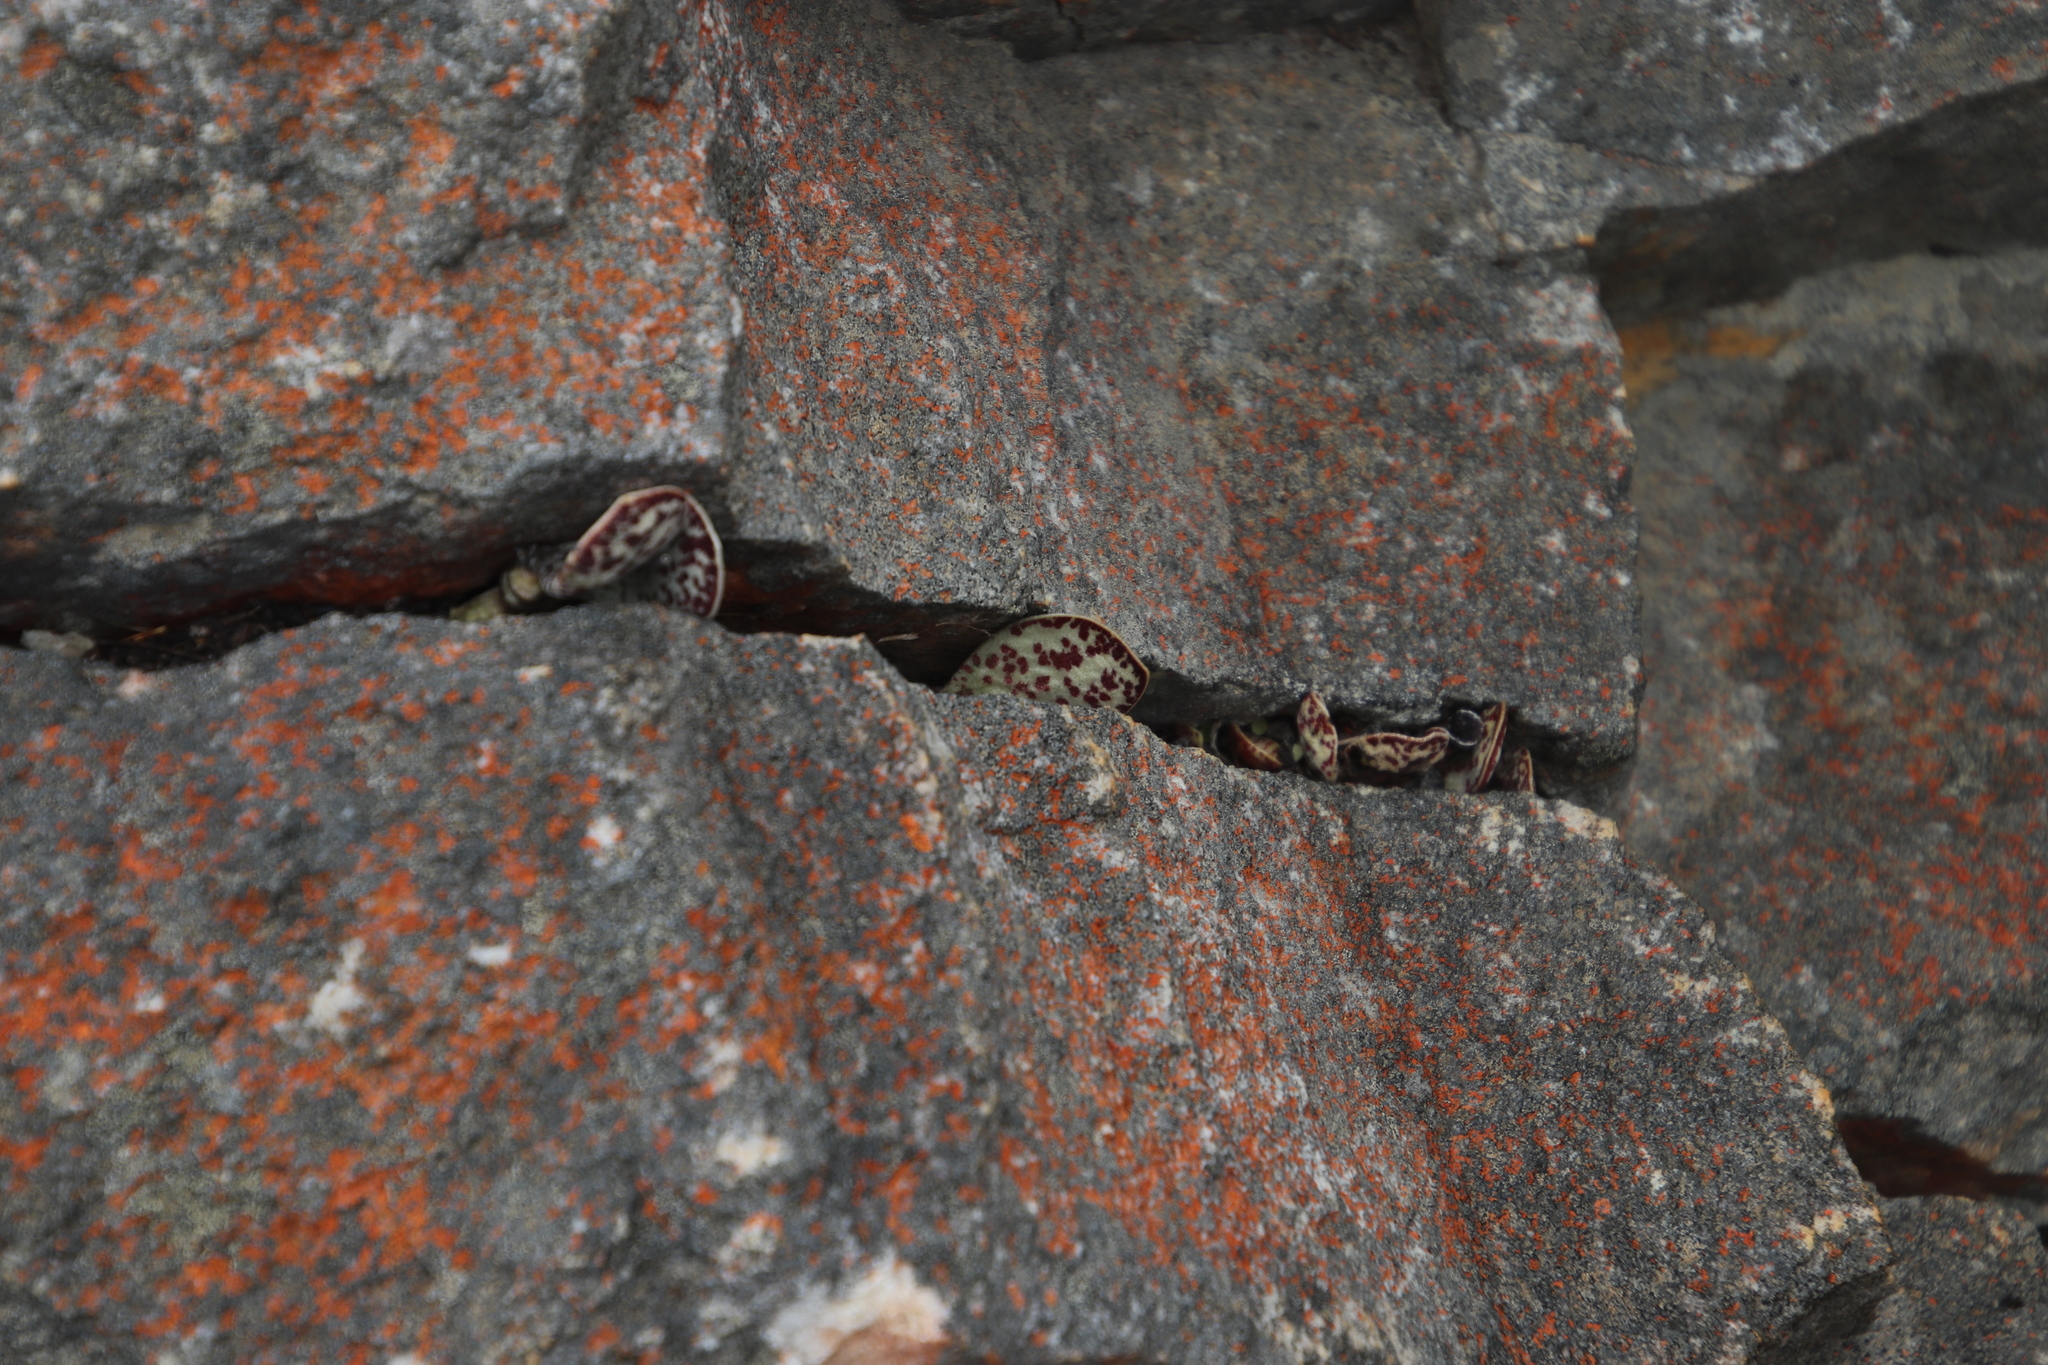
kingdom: Plantae
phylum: Tracheophyta
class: Magnoliopsida
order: Saxifragales
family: Crassulaceae
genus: Adromischus
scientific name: Adromischus hemisphaericus
